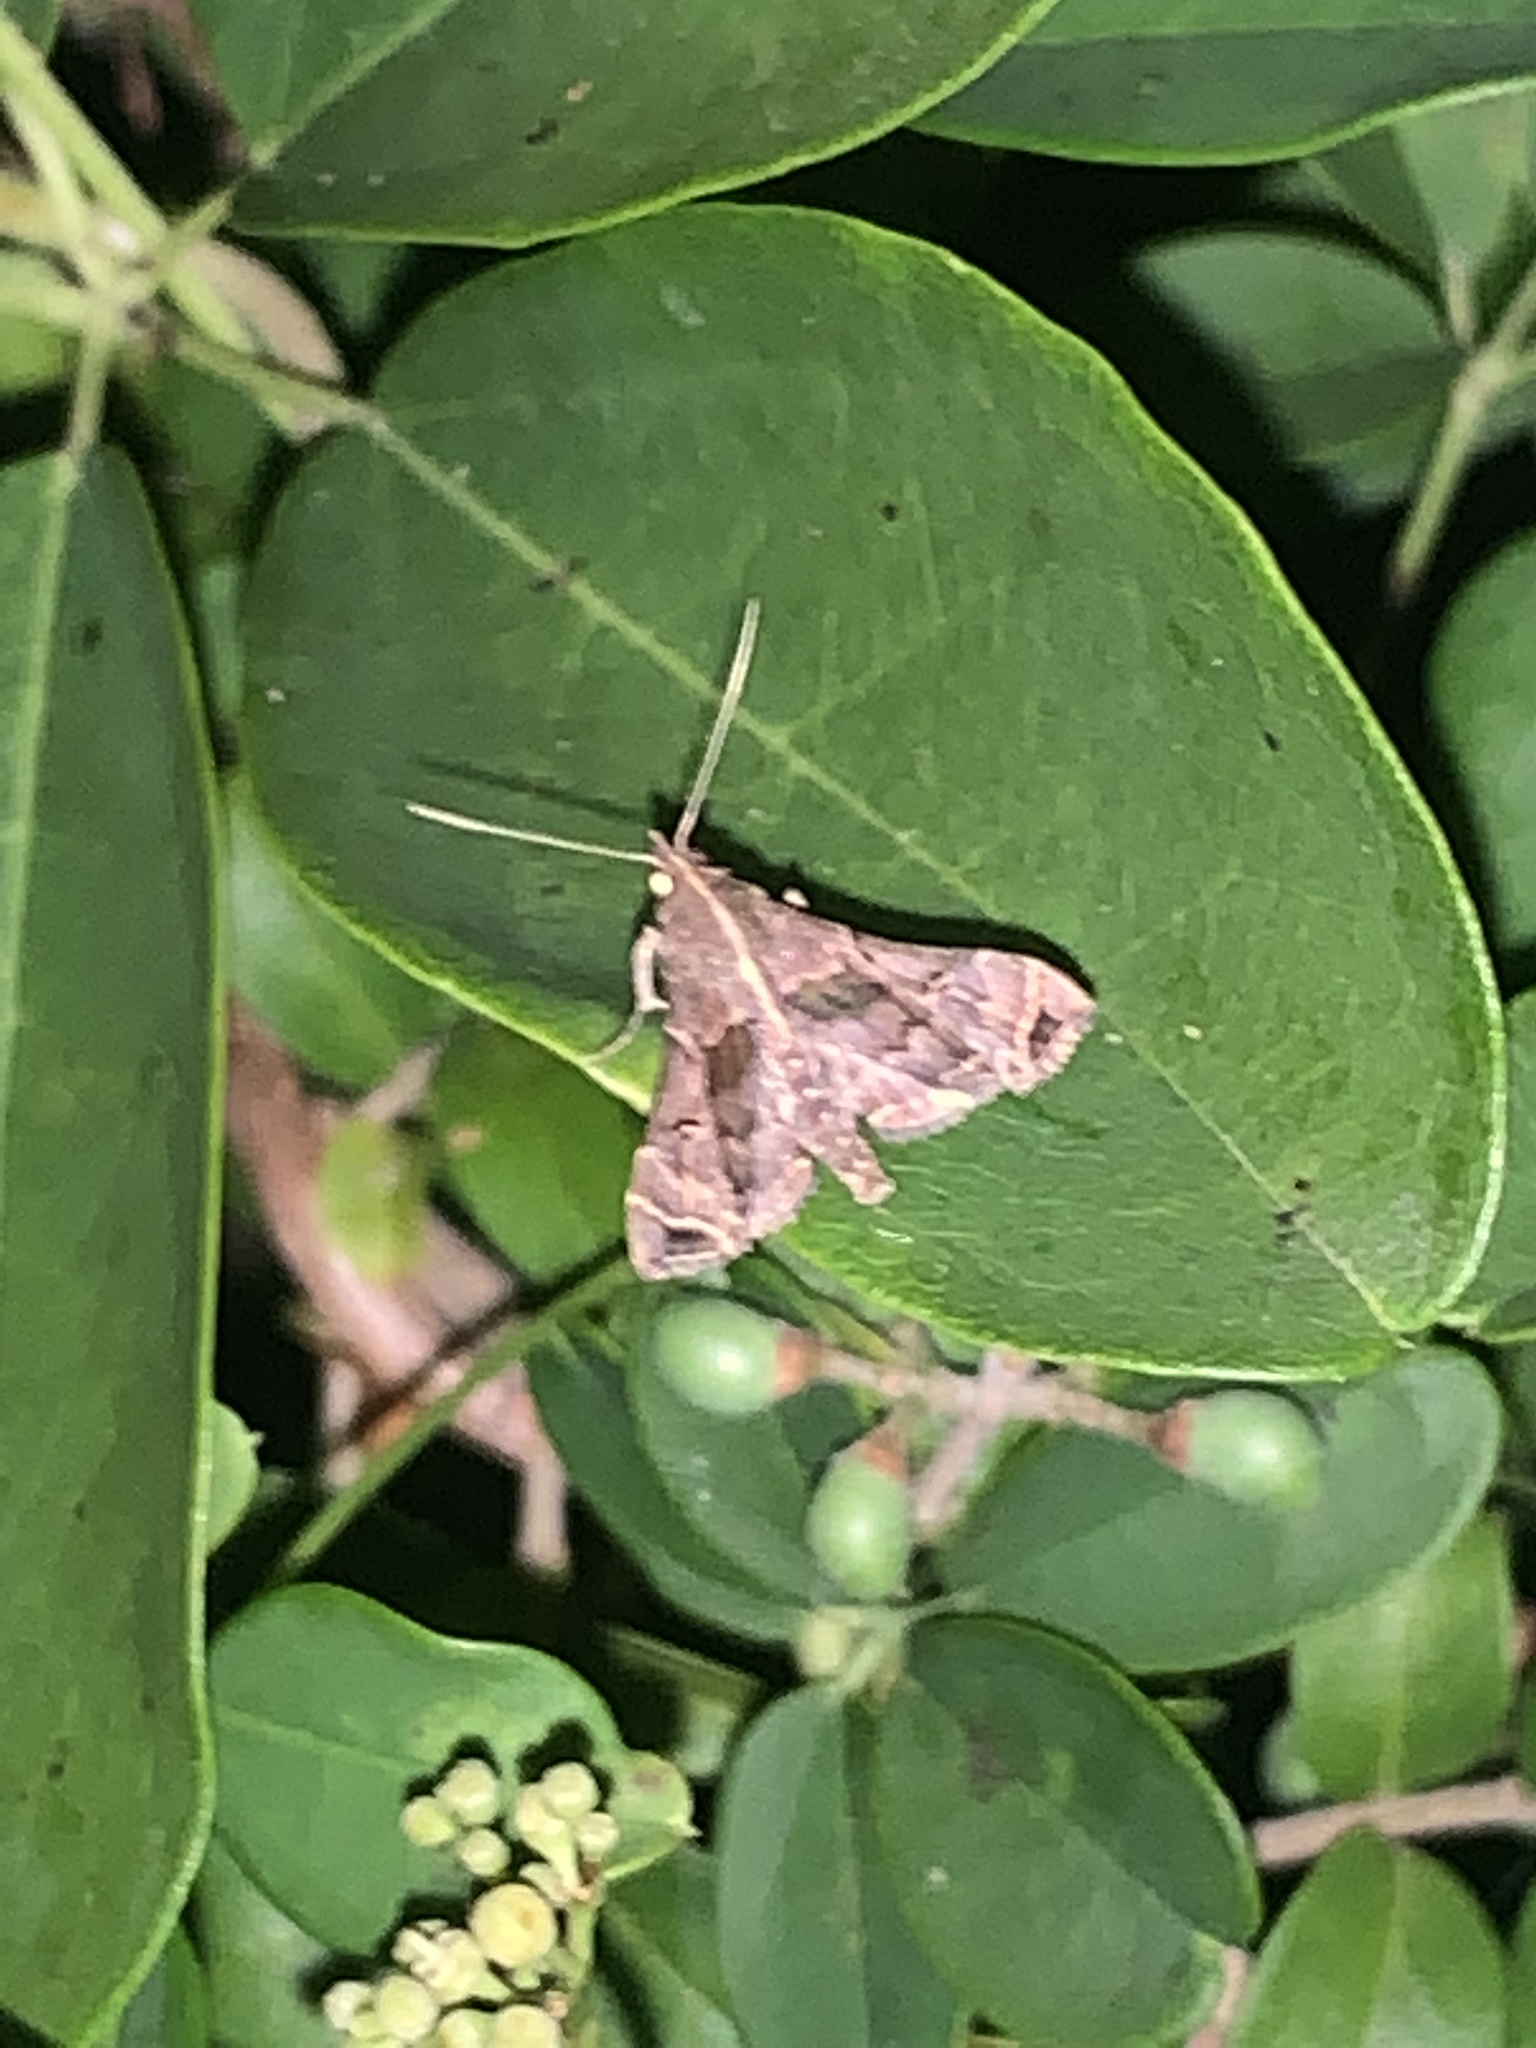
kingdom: Animalia
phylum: Arthropoda
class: Insecta
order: Lepidoptera
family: Erebidae
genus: Palthis
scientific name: Palthis asopialis
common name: Faint-spotted palthis moth
